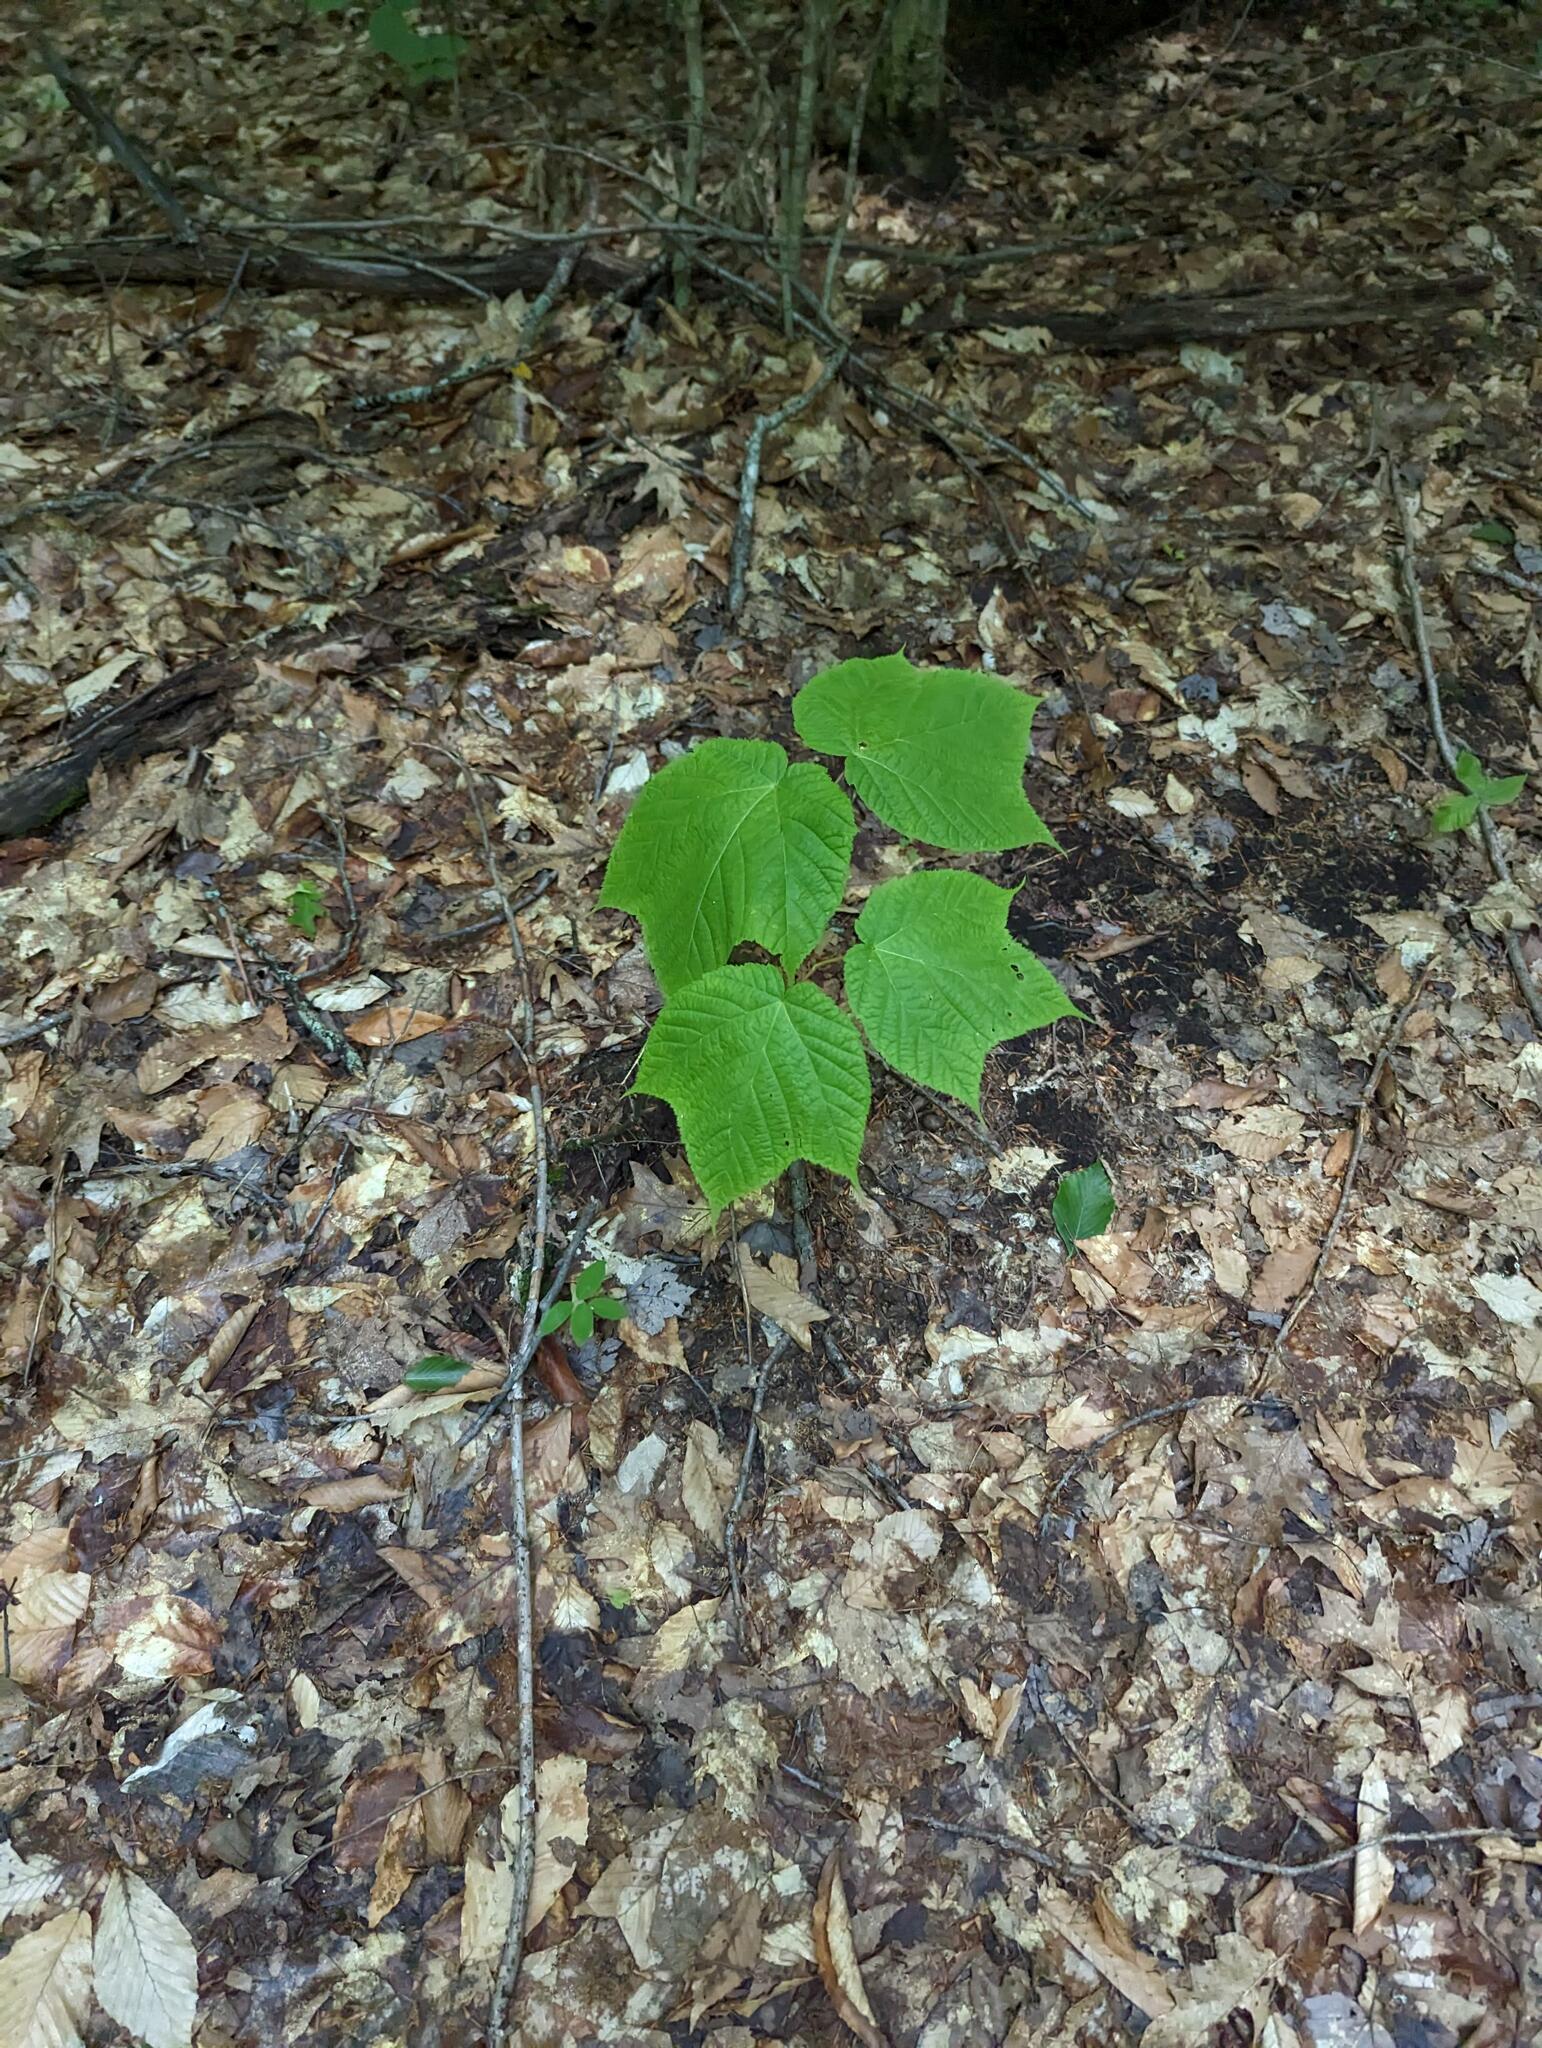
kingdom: Plantae
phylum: Tracheophyta
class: Magnoliopsida
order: Sapindales
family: Sapindaceae
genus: Acer
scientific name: Acer pensylvanicum
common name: Moosewood
